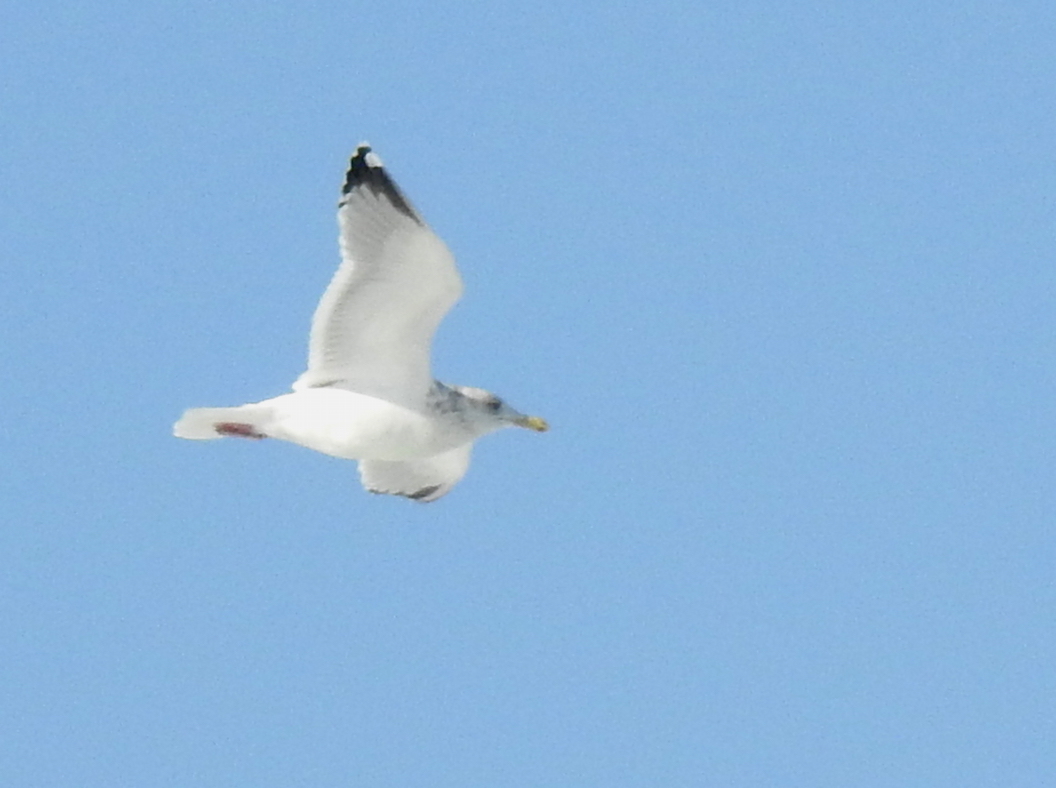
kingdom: Animalia
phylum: Chordata
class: Aves
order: Charadriiformes
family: Laridae
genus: Larus
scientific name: Larus argentatus
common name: Herring gull
